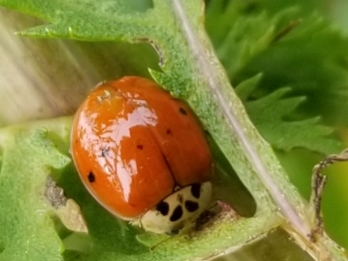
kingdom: Animalia
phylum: Arthropoda
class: Insecta
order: Coleoptera
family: Coccinellidae
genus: Harmonia
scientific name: Harmonia axyridis
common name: Harlequin ladybird
